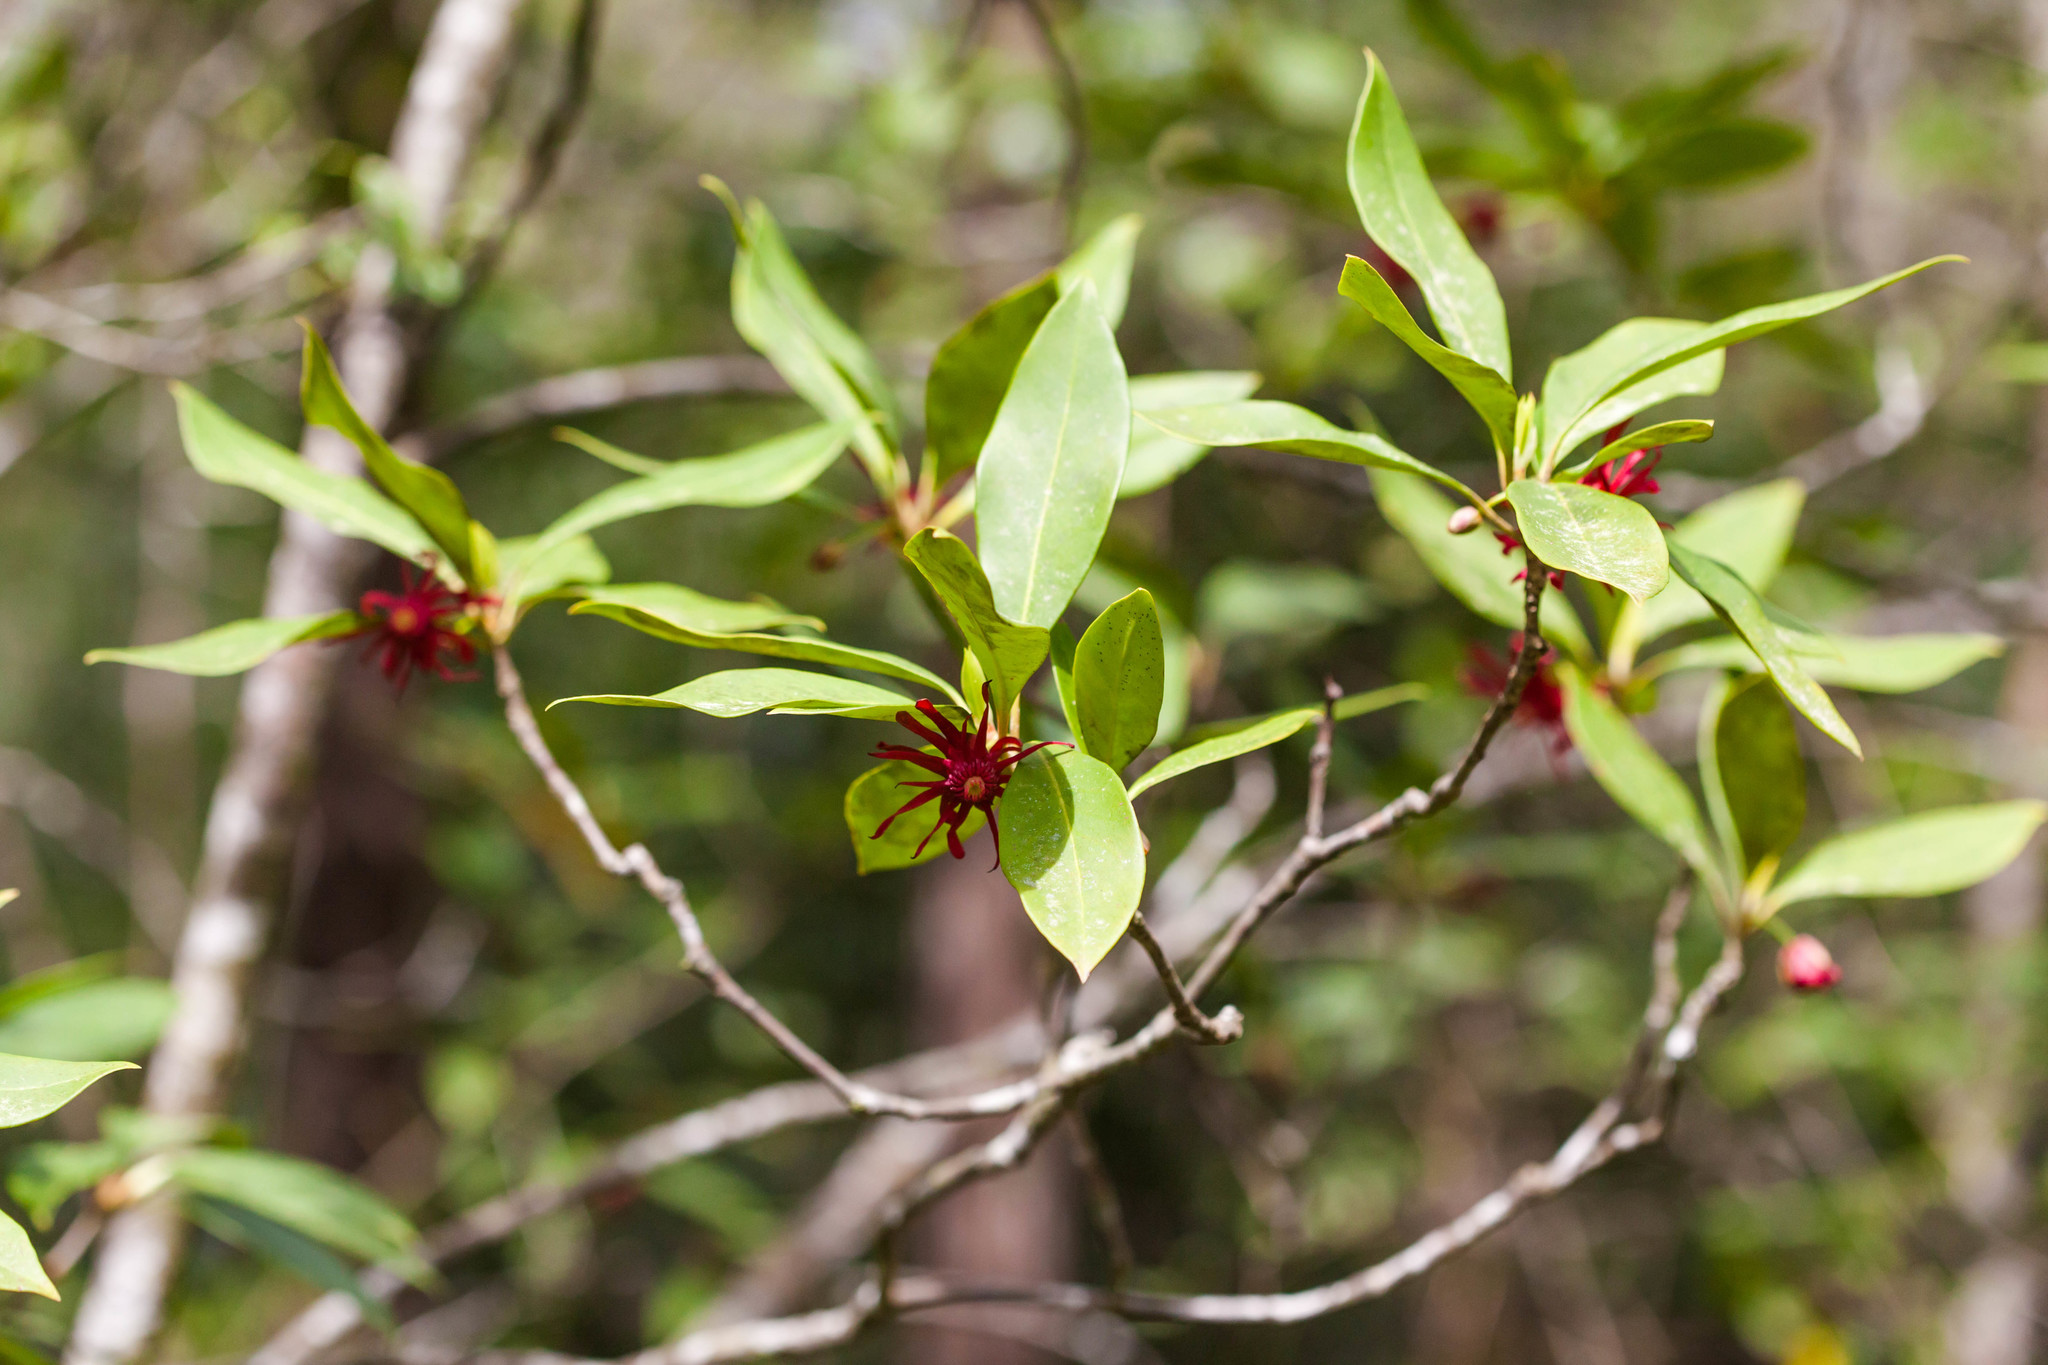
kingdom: Plantae
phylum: Tracheophyta
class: Magnoliopsida
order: Austrobaileyales
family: Schisandraceae
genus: Illicium
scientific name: Illicium floridanum
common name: Florida anisetree
